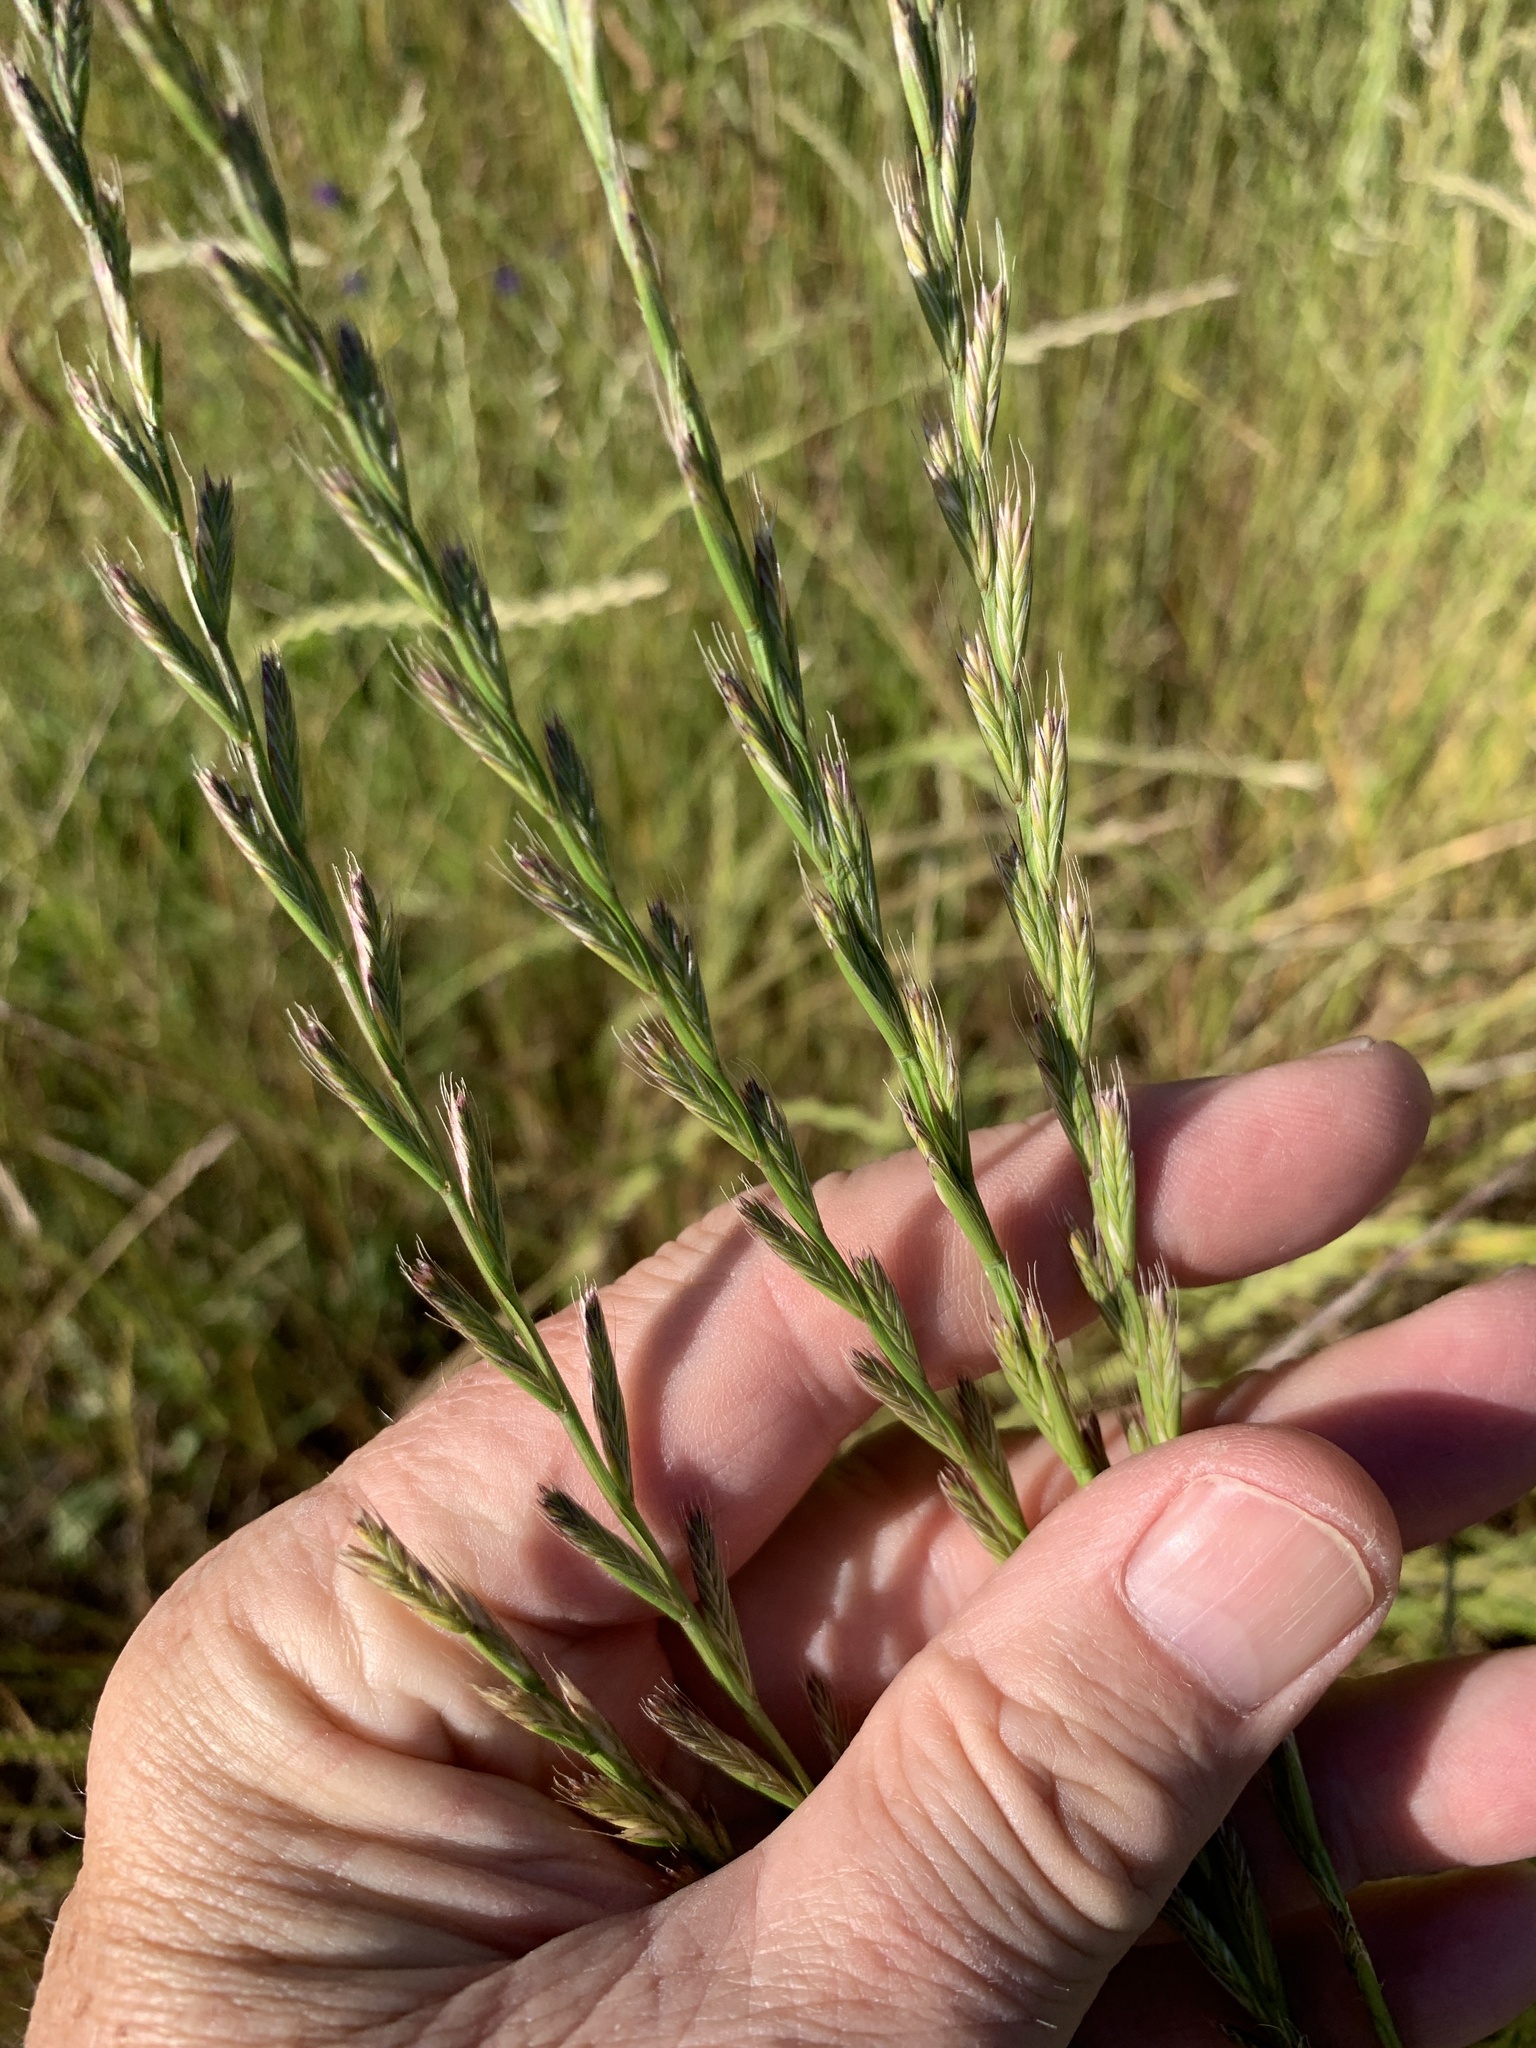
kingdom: Plantae
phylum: Tracheophyta
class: Liliopsida
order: Poales
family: Poaceae
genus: Lolium
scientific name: Lolium multiflorum
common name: Annual ryegrass
